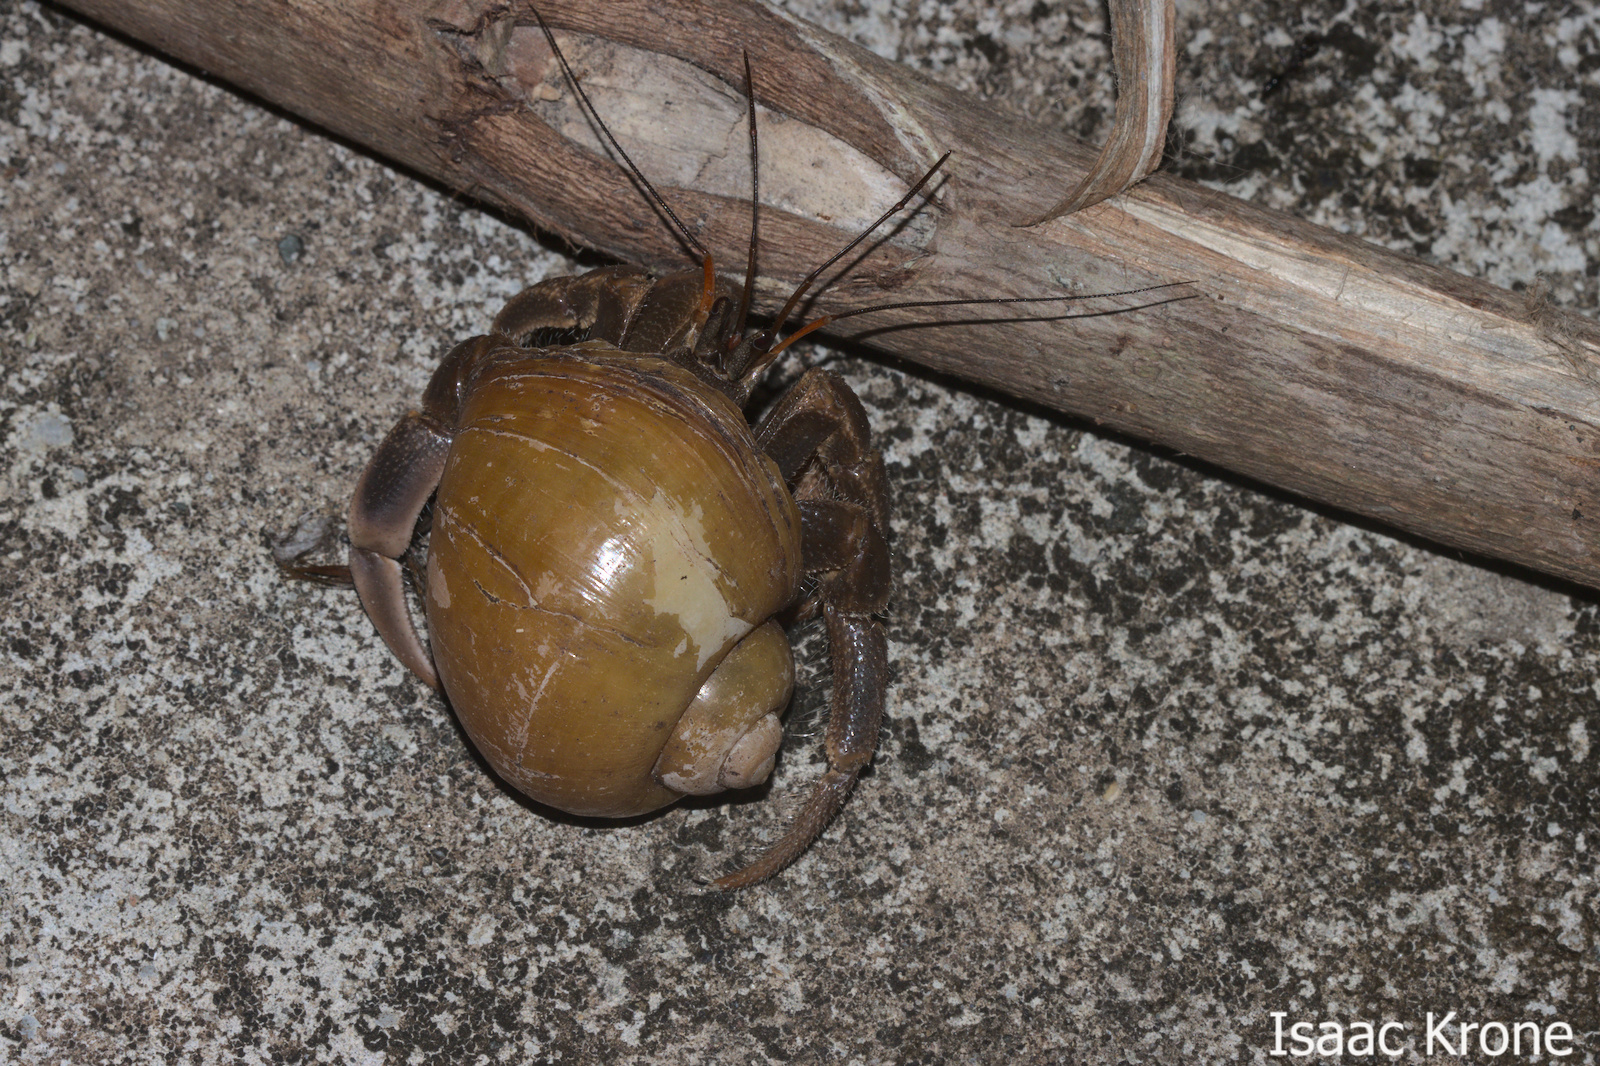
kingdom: Animalia
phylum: Arthropoda
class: Malacostraca
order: Decapoda
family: Coenobitidae
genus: Coenobita
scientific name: Coenobita brevimanus
